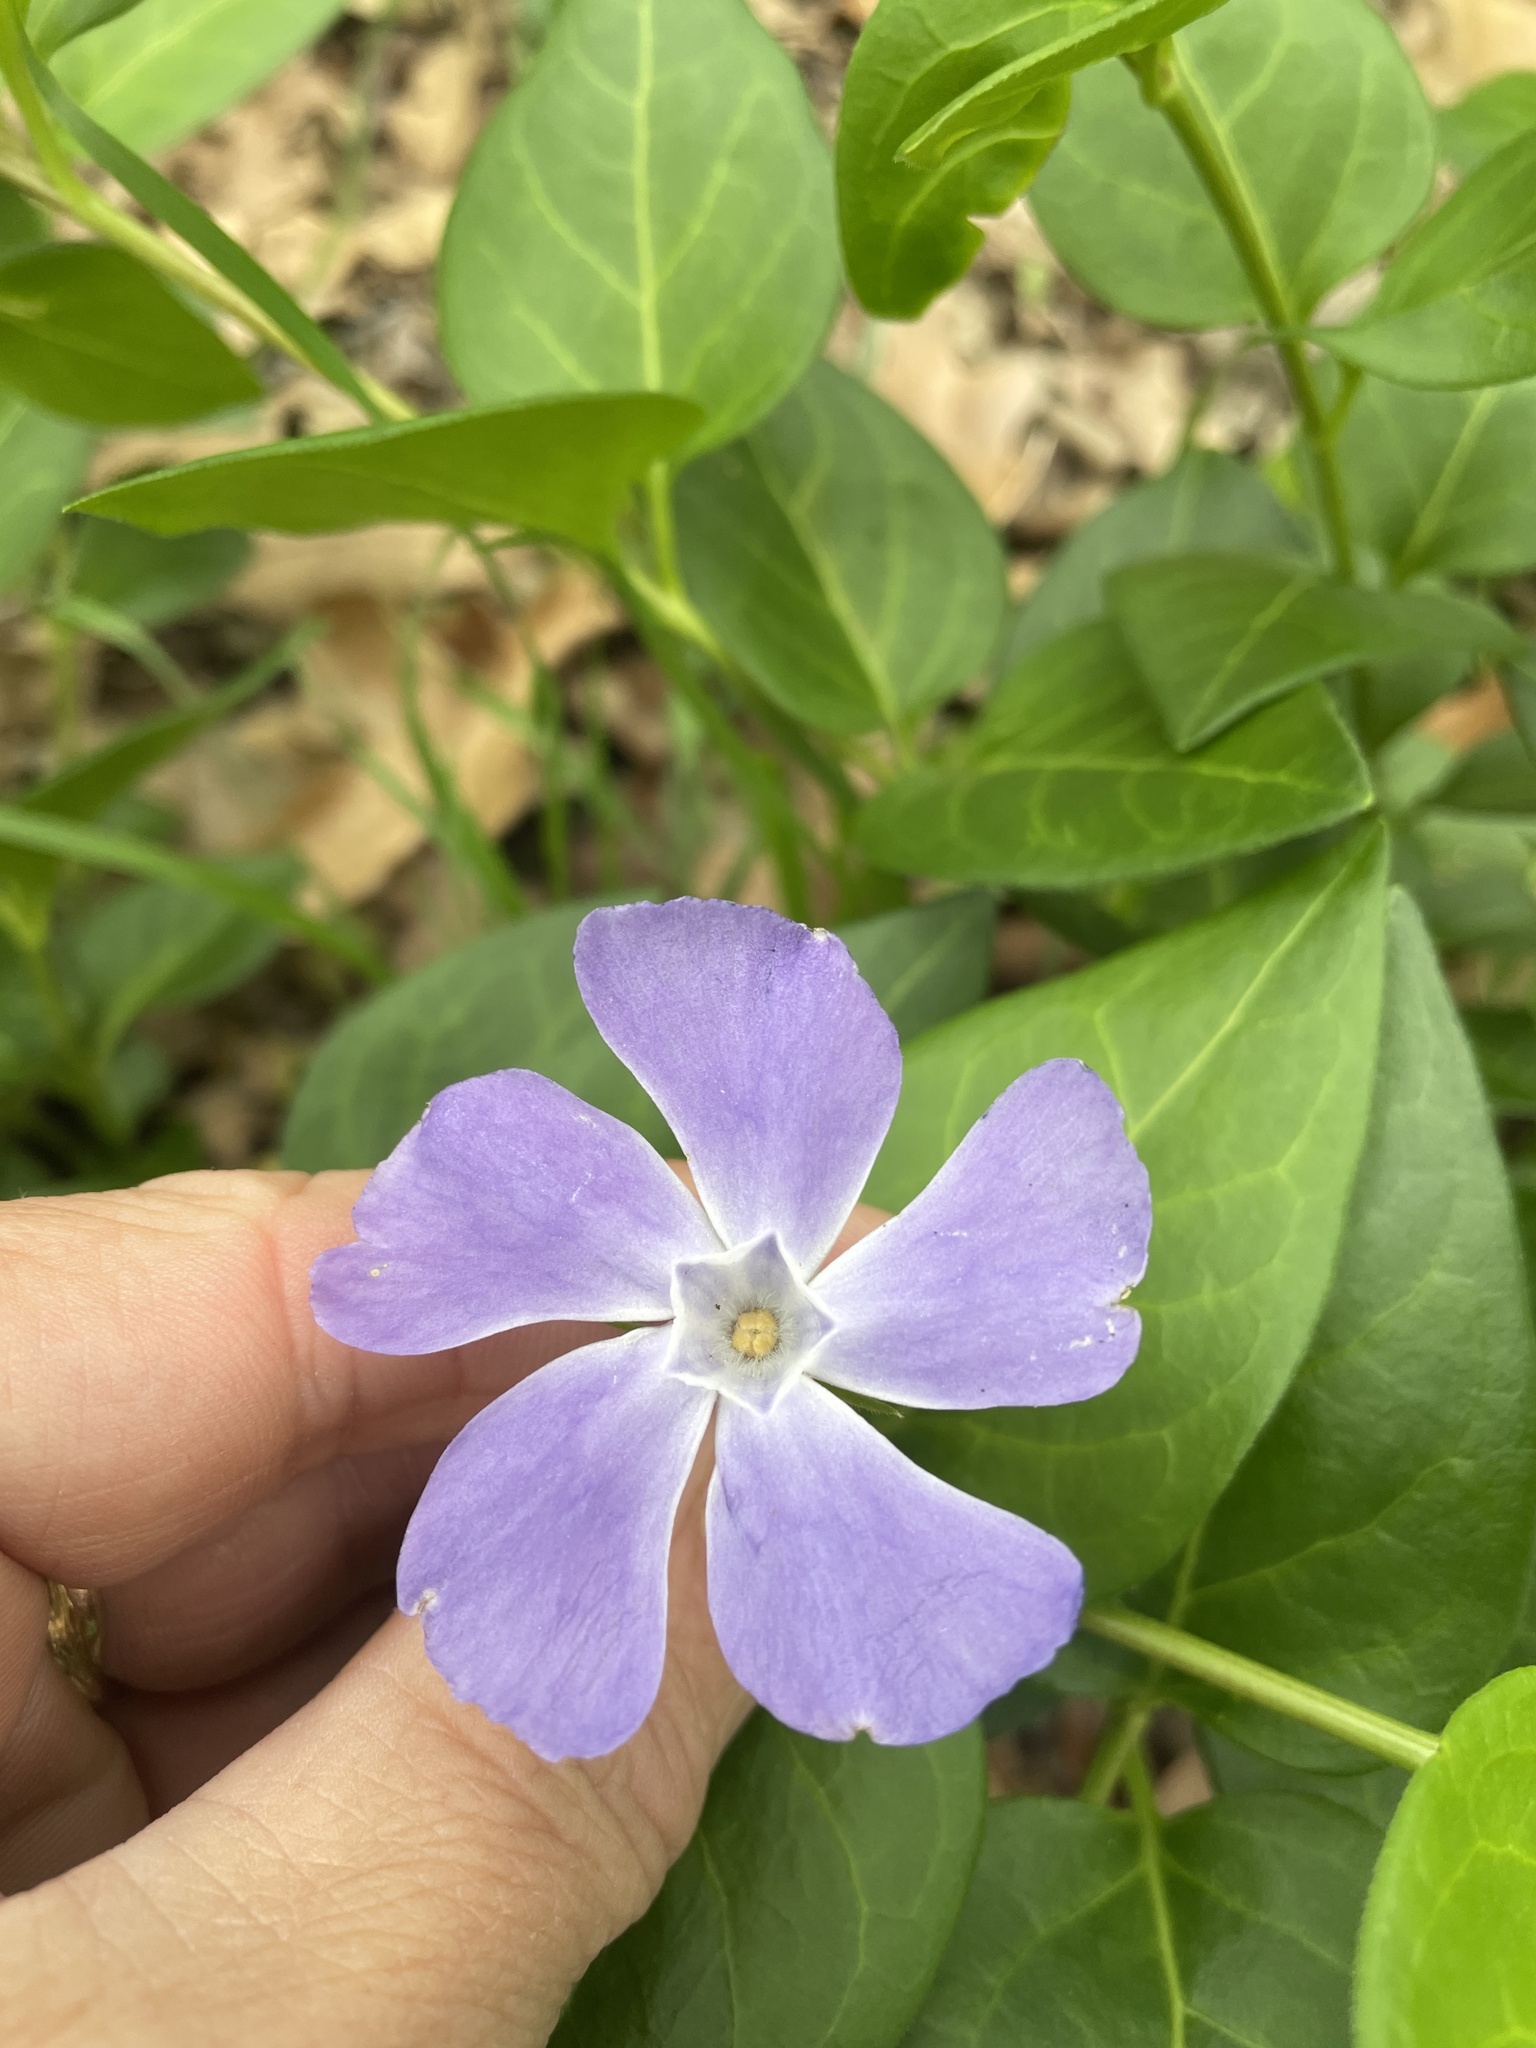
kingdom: Plantae
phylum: Tracheophyta
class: Magnoliopsida
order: Gentianales
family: Apocynaceae
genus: Vinca
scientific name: Vinca major
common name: Greater periwinkle
